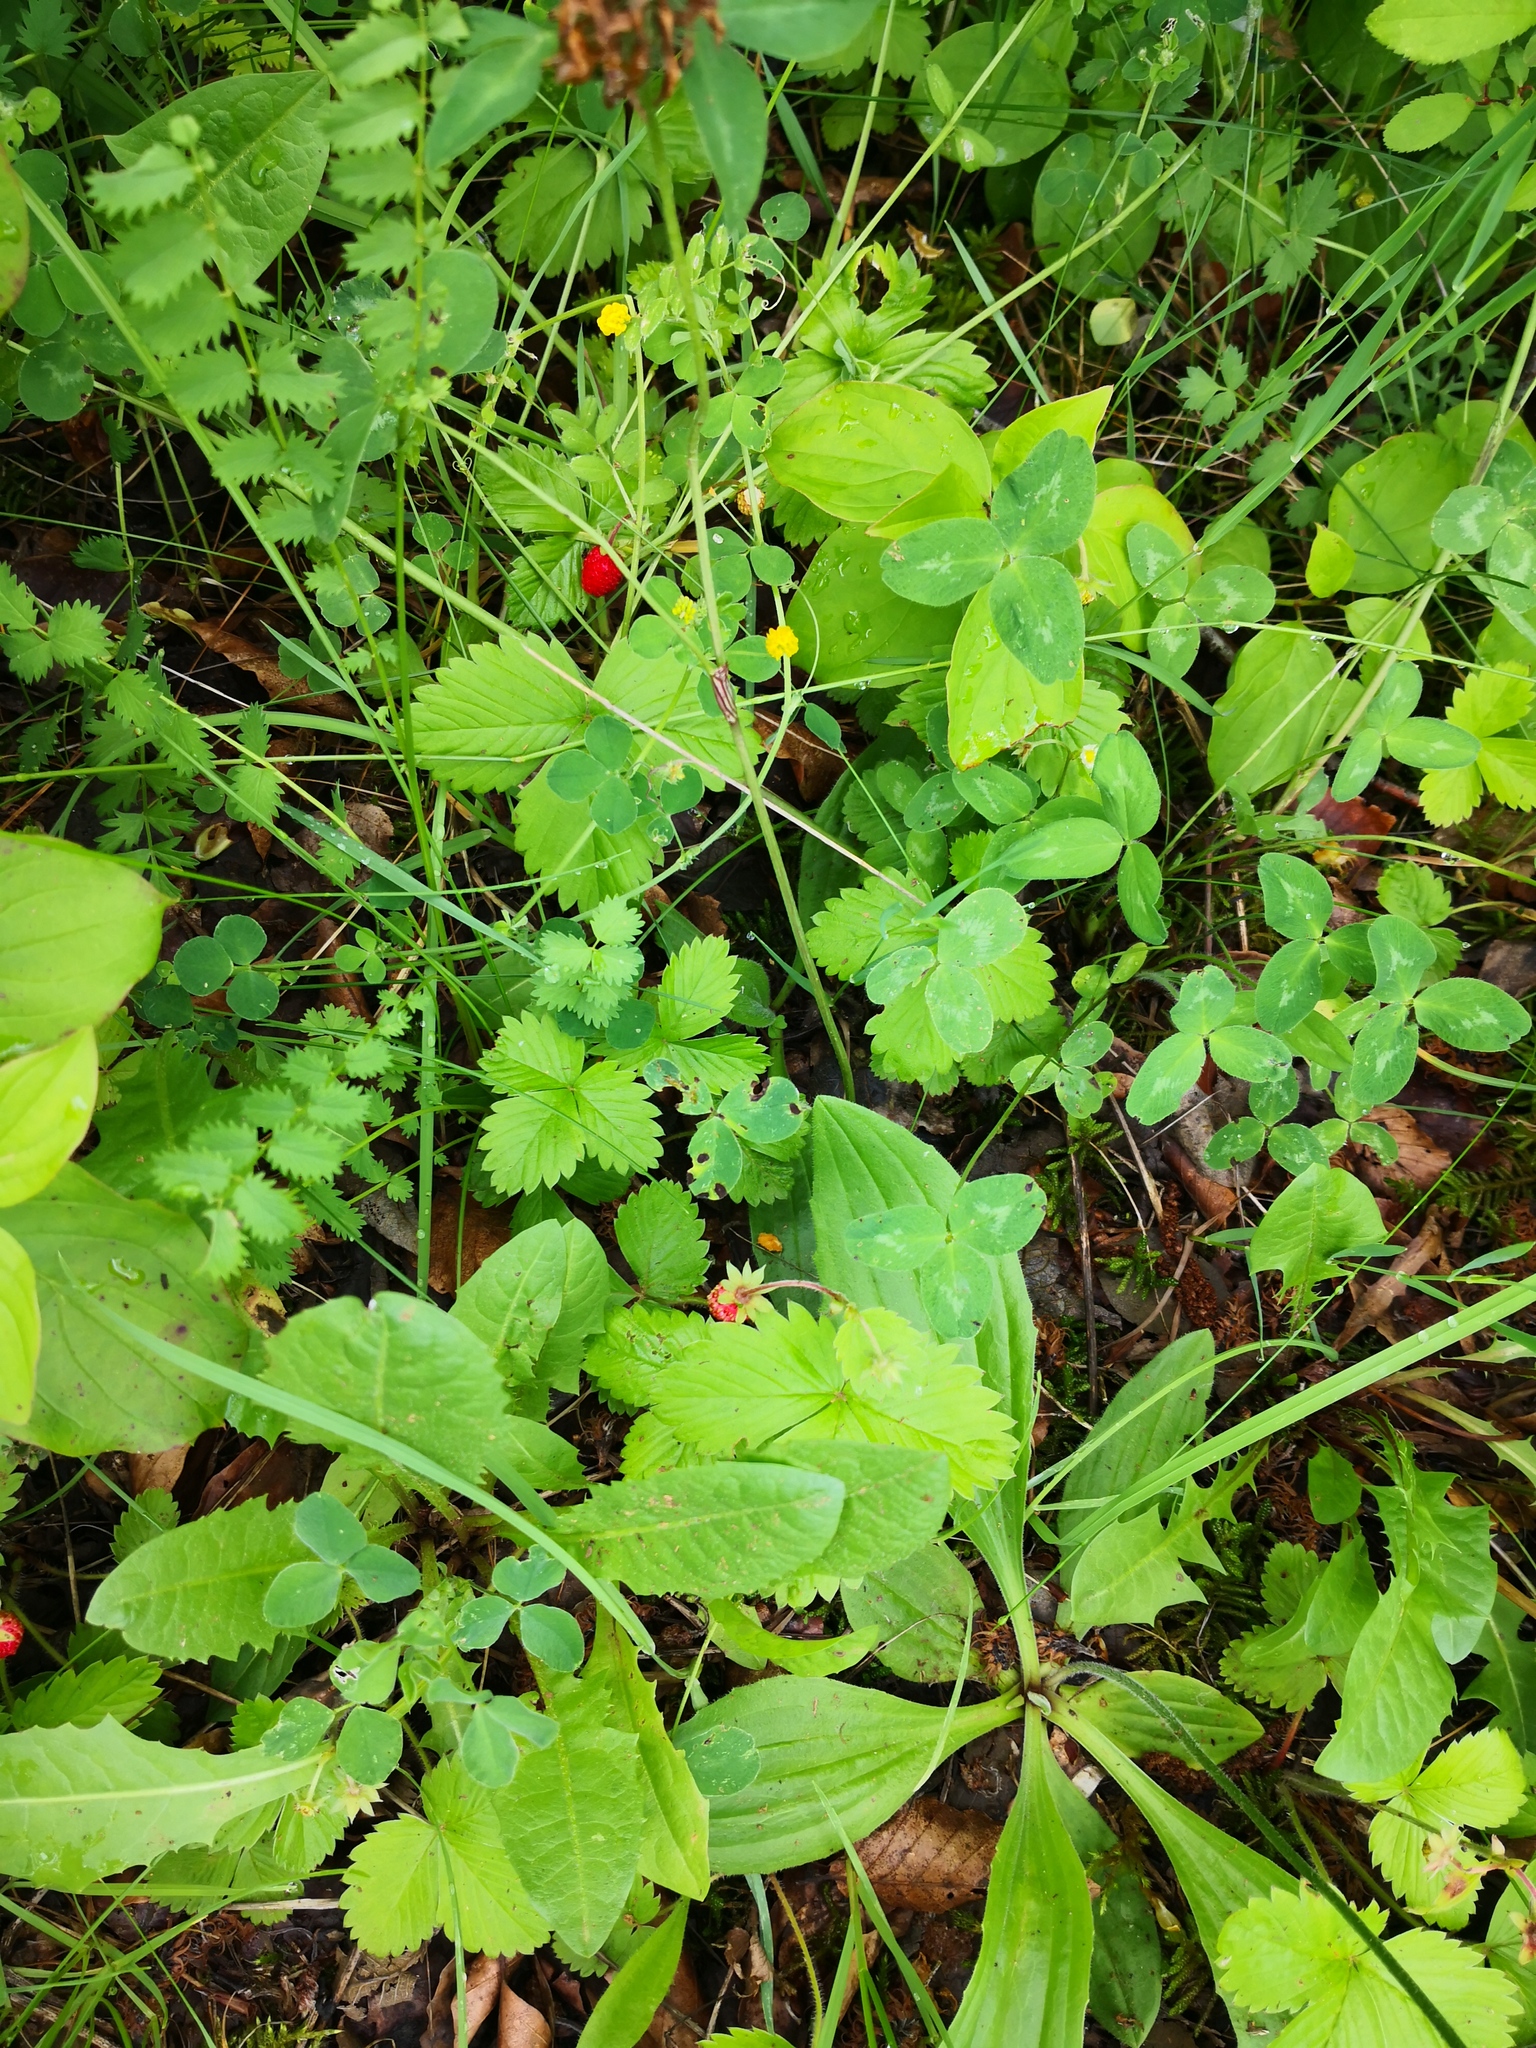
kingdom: Plantae
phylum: Tracheophyta
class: Magnoliopsida
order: Rosales
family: Rosaceae
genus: Fragaria
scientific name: Fragaria vesca
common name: Wild strawberry
